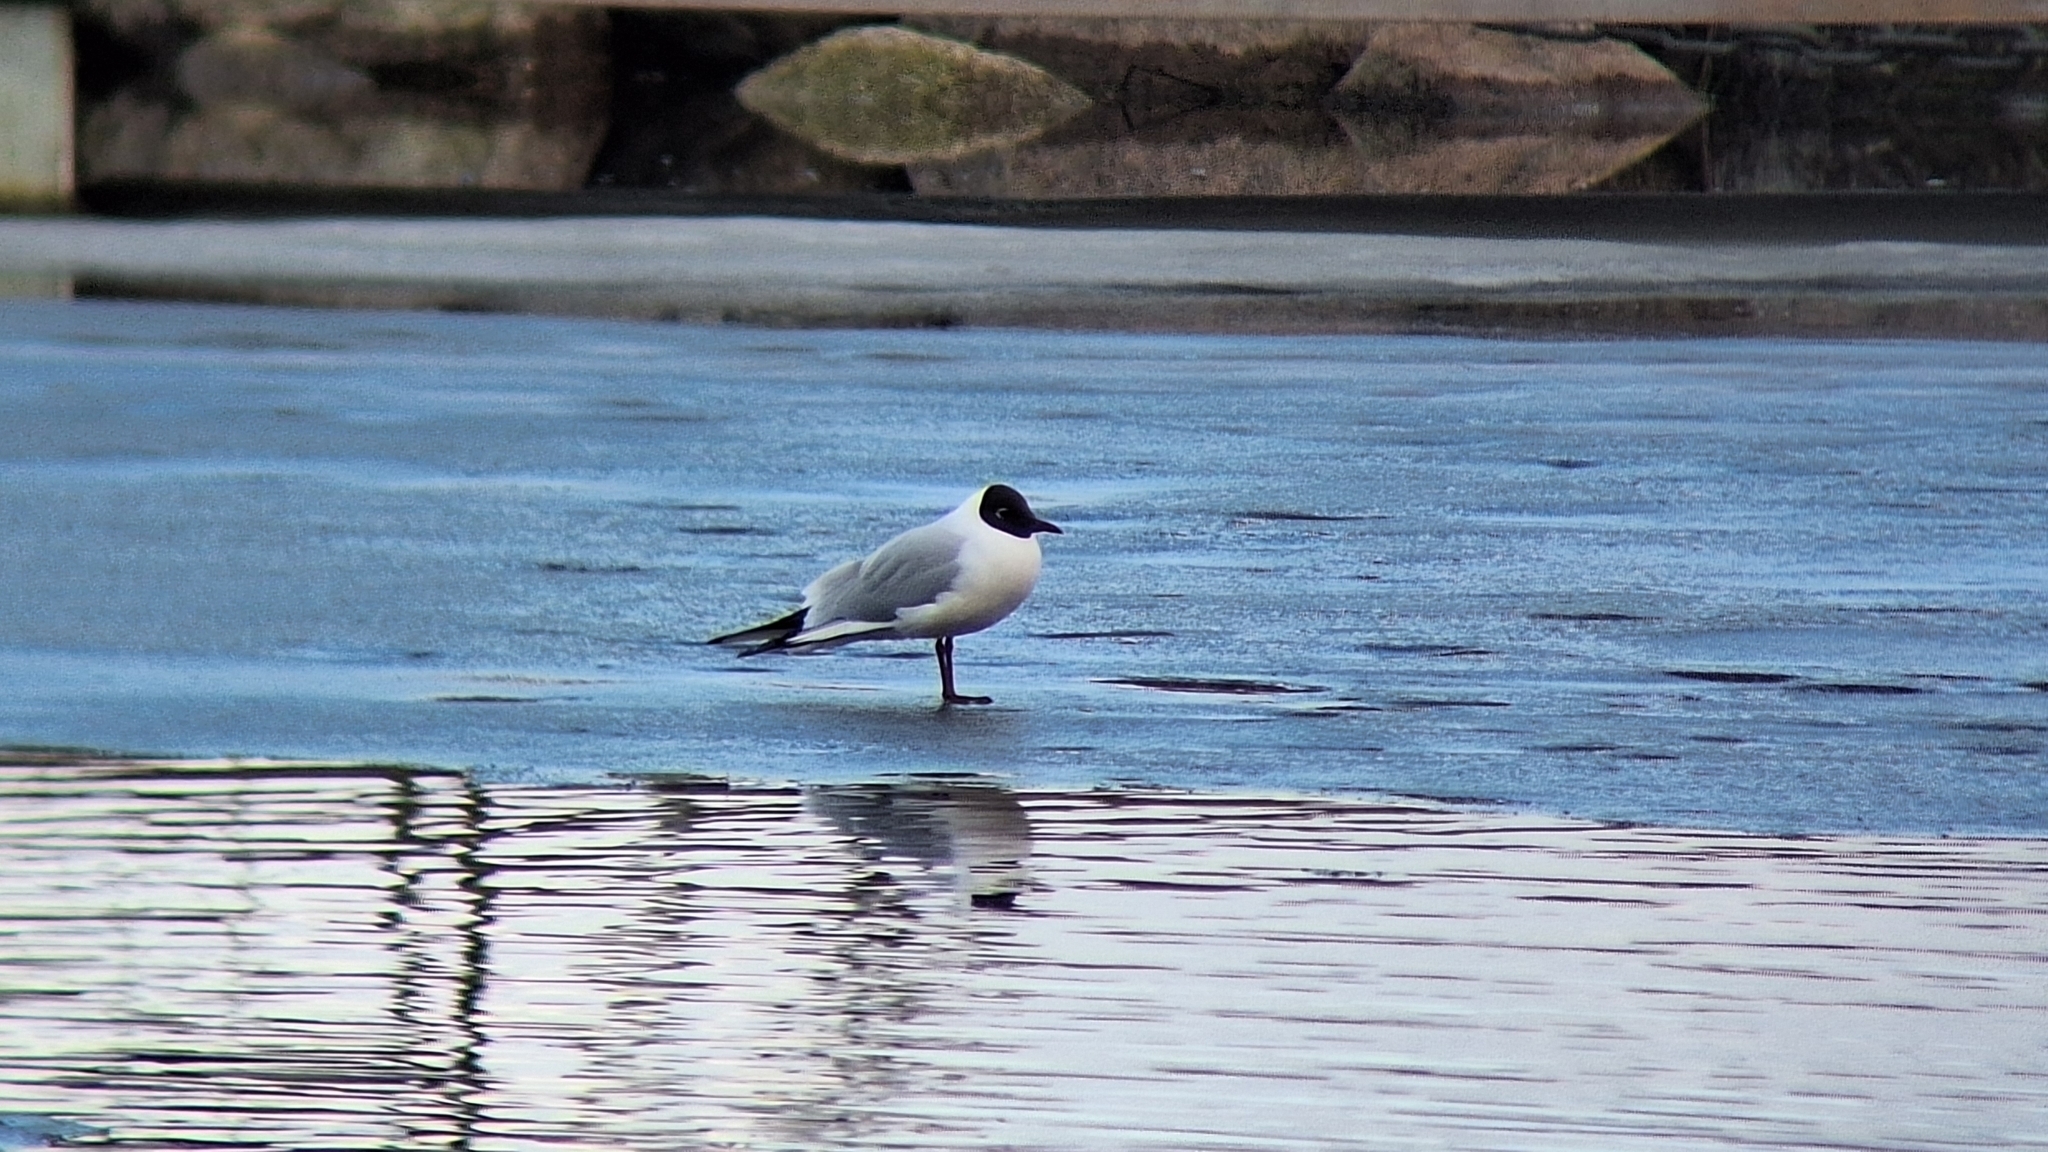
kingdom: Animalia
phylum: Chordata
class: Aves
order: Charadriiformes
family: Laridae
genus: Chroicocephalus
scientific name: Chroicocephalus ridibundus
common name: Black-headed gull
